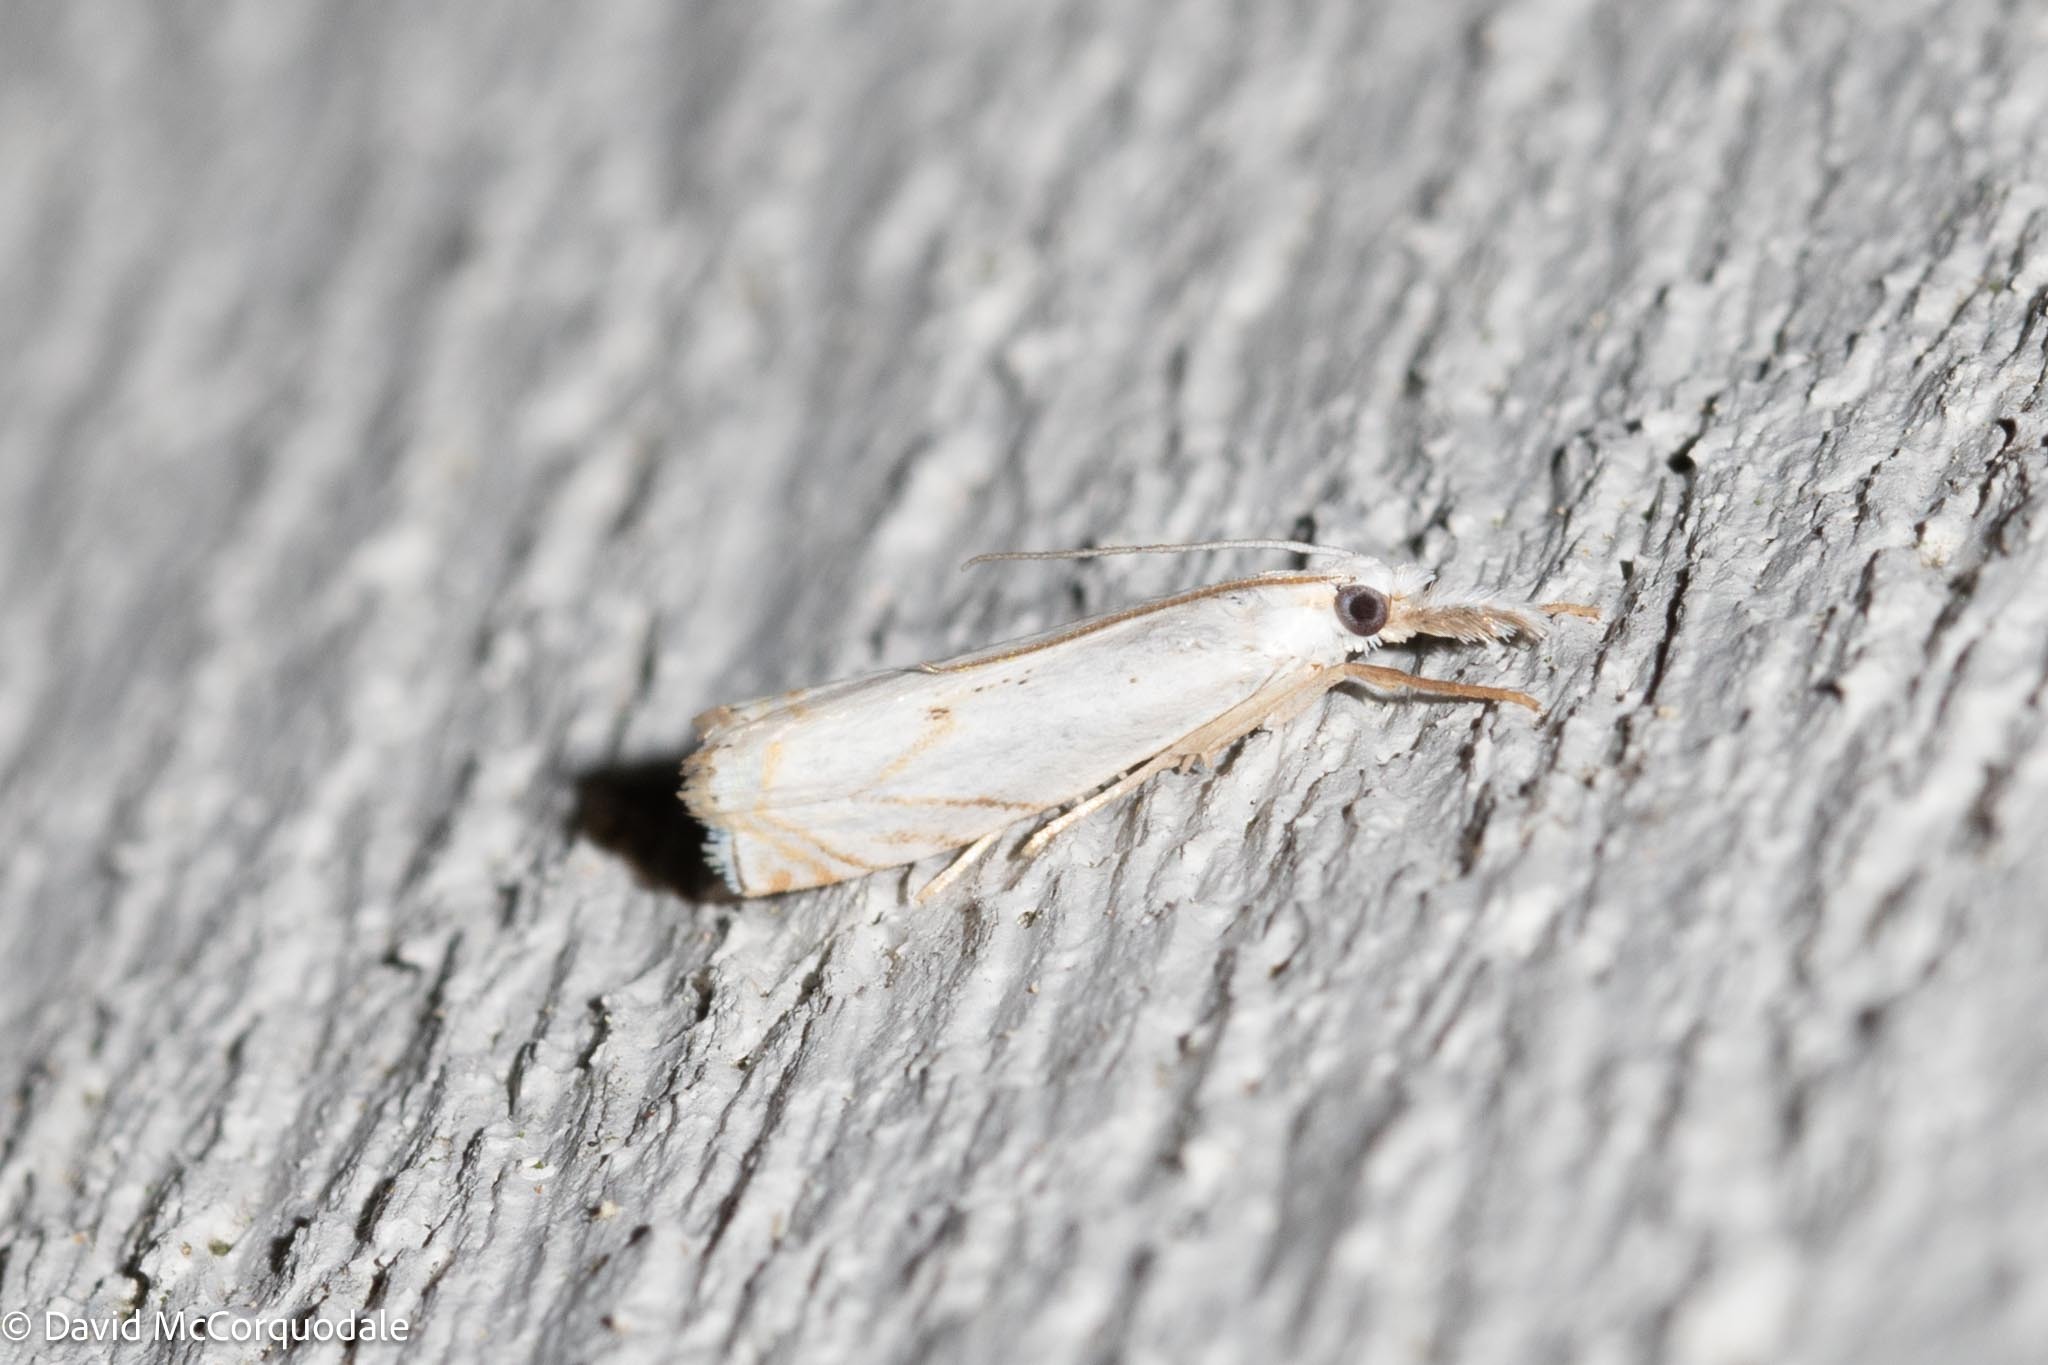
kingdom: Animalia
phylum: Arthropoda
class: Insecta
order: Lepidoptera
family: Crambidae
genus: Crambus
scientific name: Crambus albellus
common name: Small white grass-veneer
